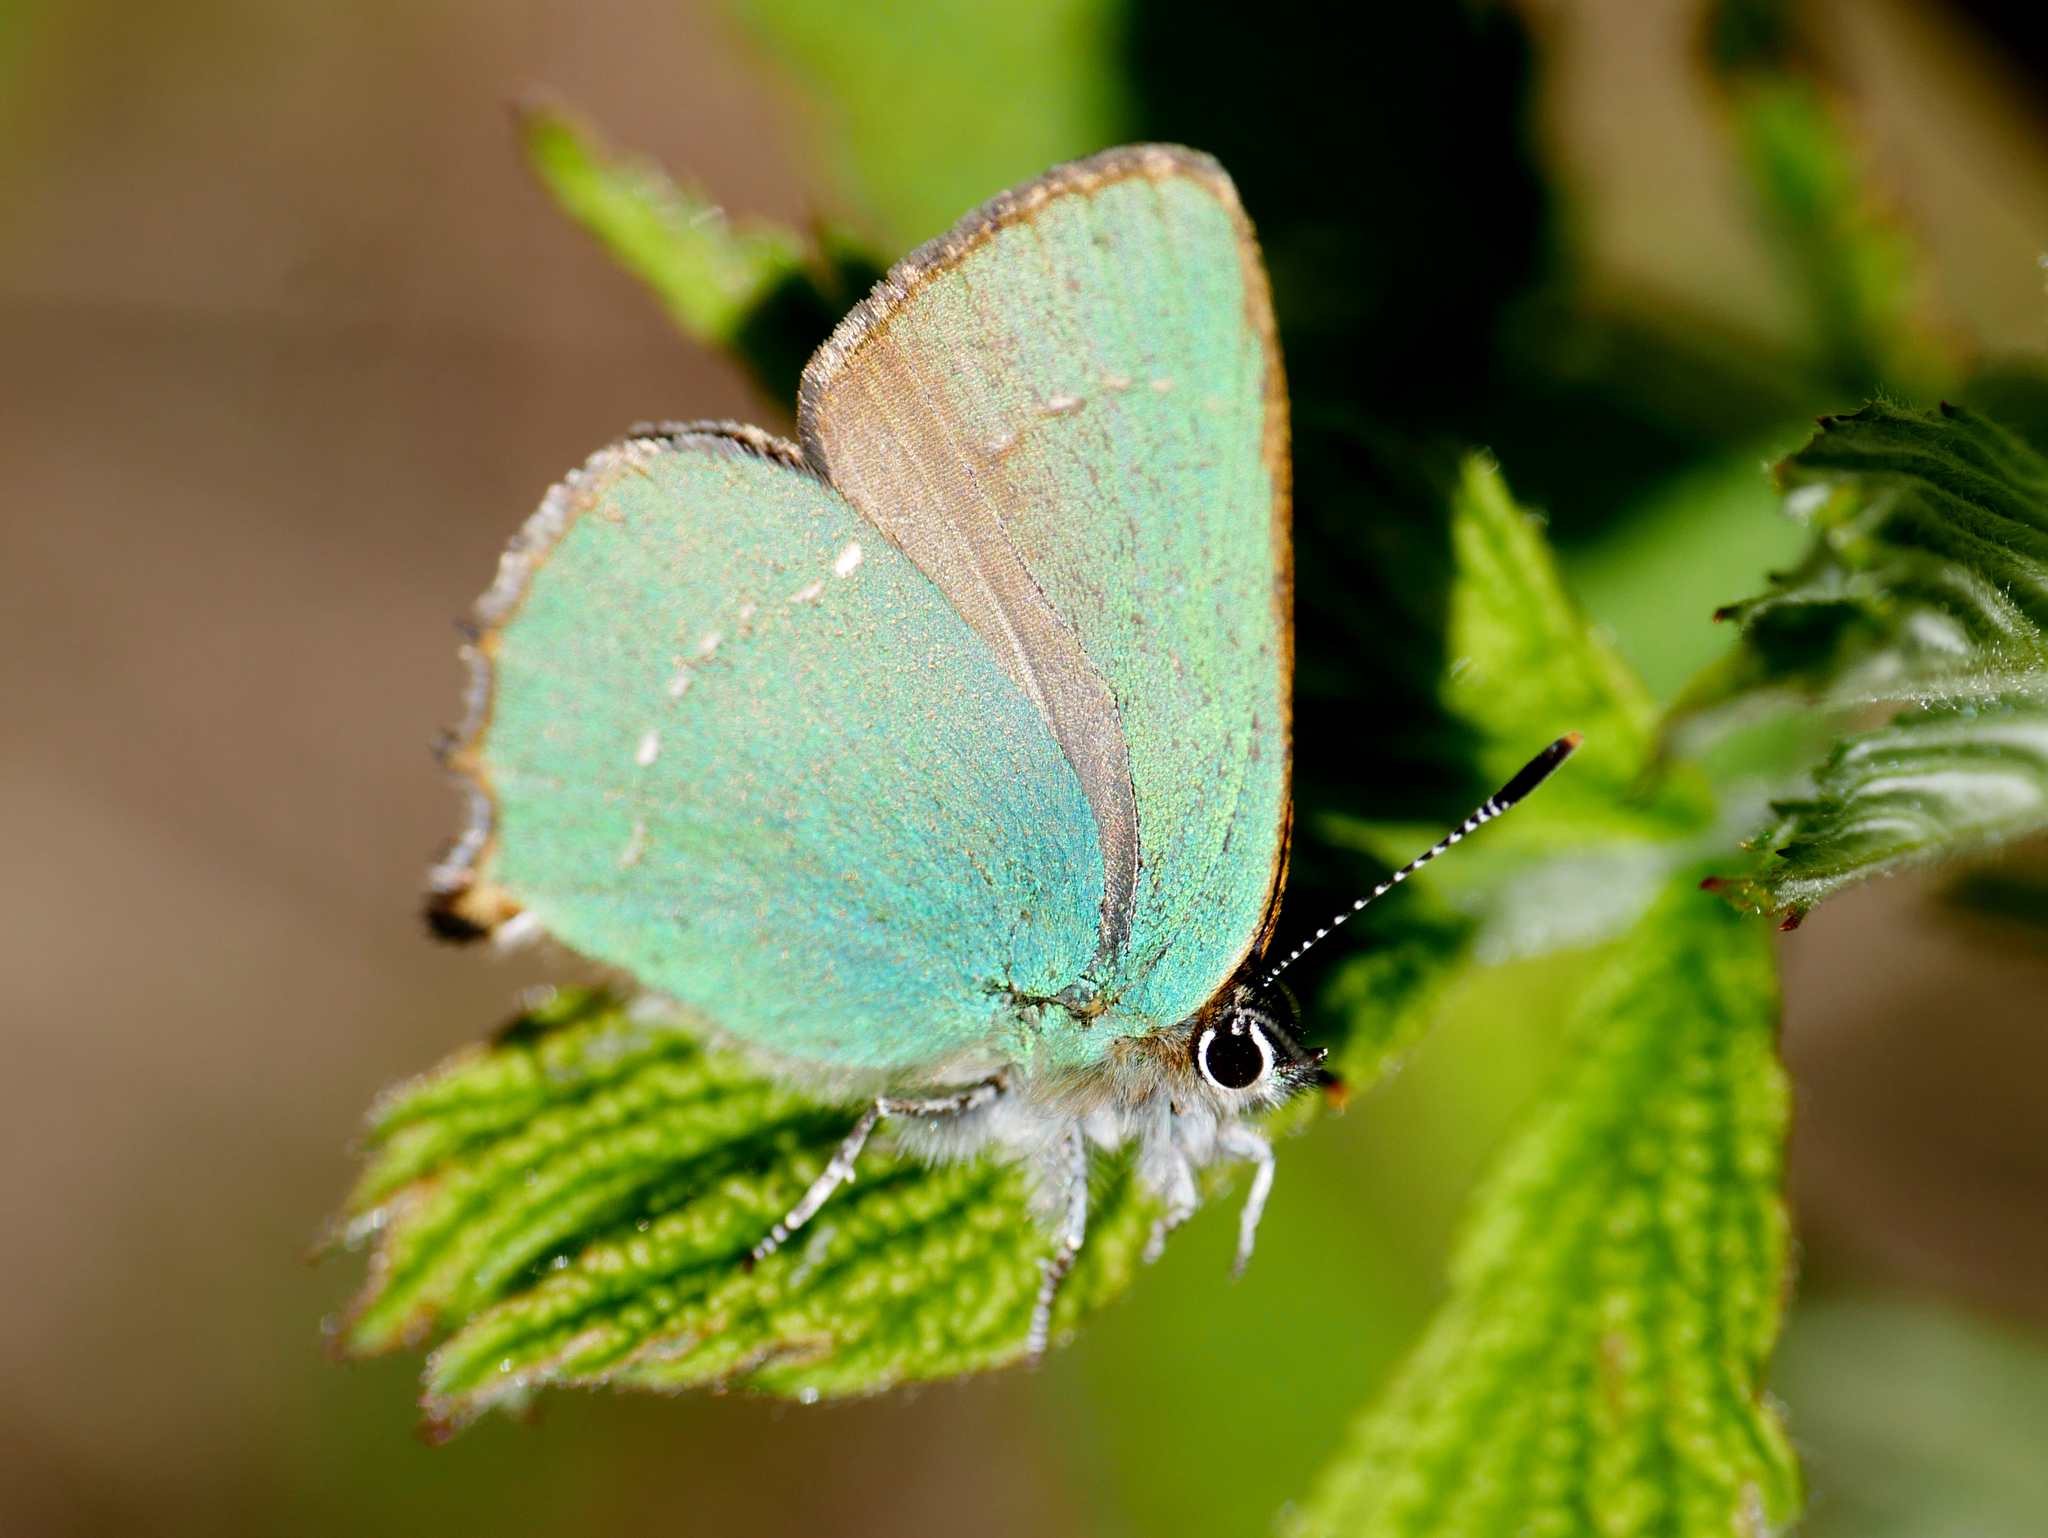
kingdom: Animalia
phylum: Arthropoda
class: Insecta
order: Lepidoptera
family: Lycaenidae
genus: Callophrys
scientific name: Callophrys rubi
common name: Green hairstreak
